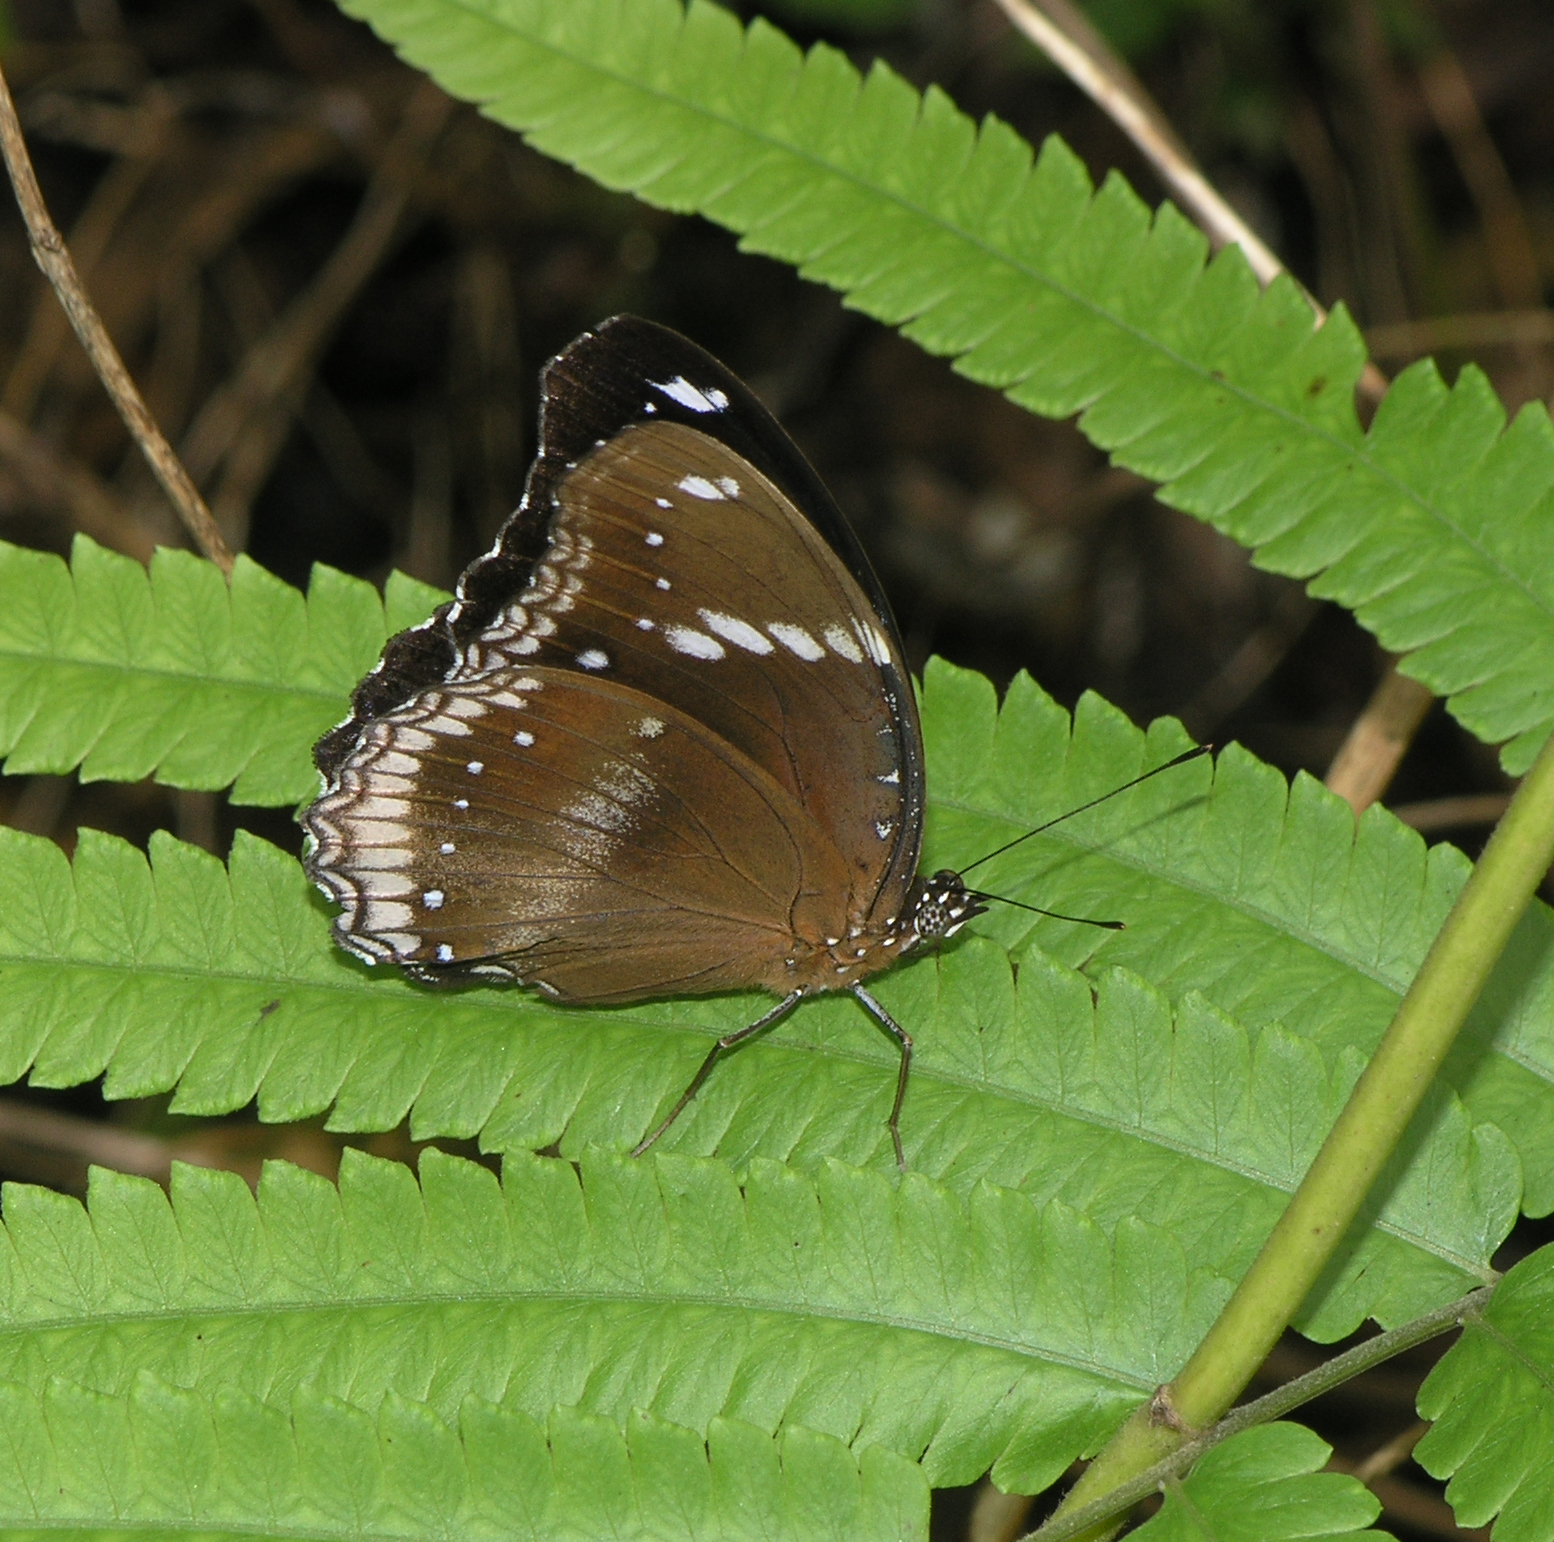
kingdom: Animalia
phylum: Arthropoda
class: Insecta
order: Lepidoptera
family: Nymphalidae
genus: Hypolimnas
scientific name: Hypolimnas bolina
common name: Great eggfly
